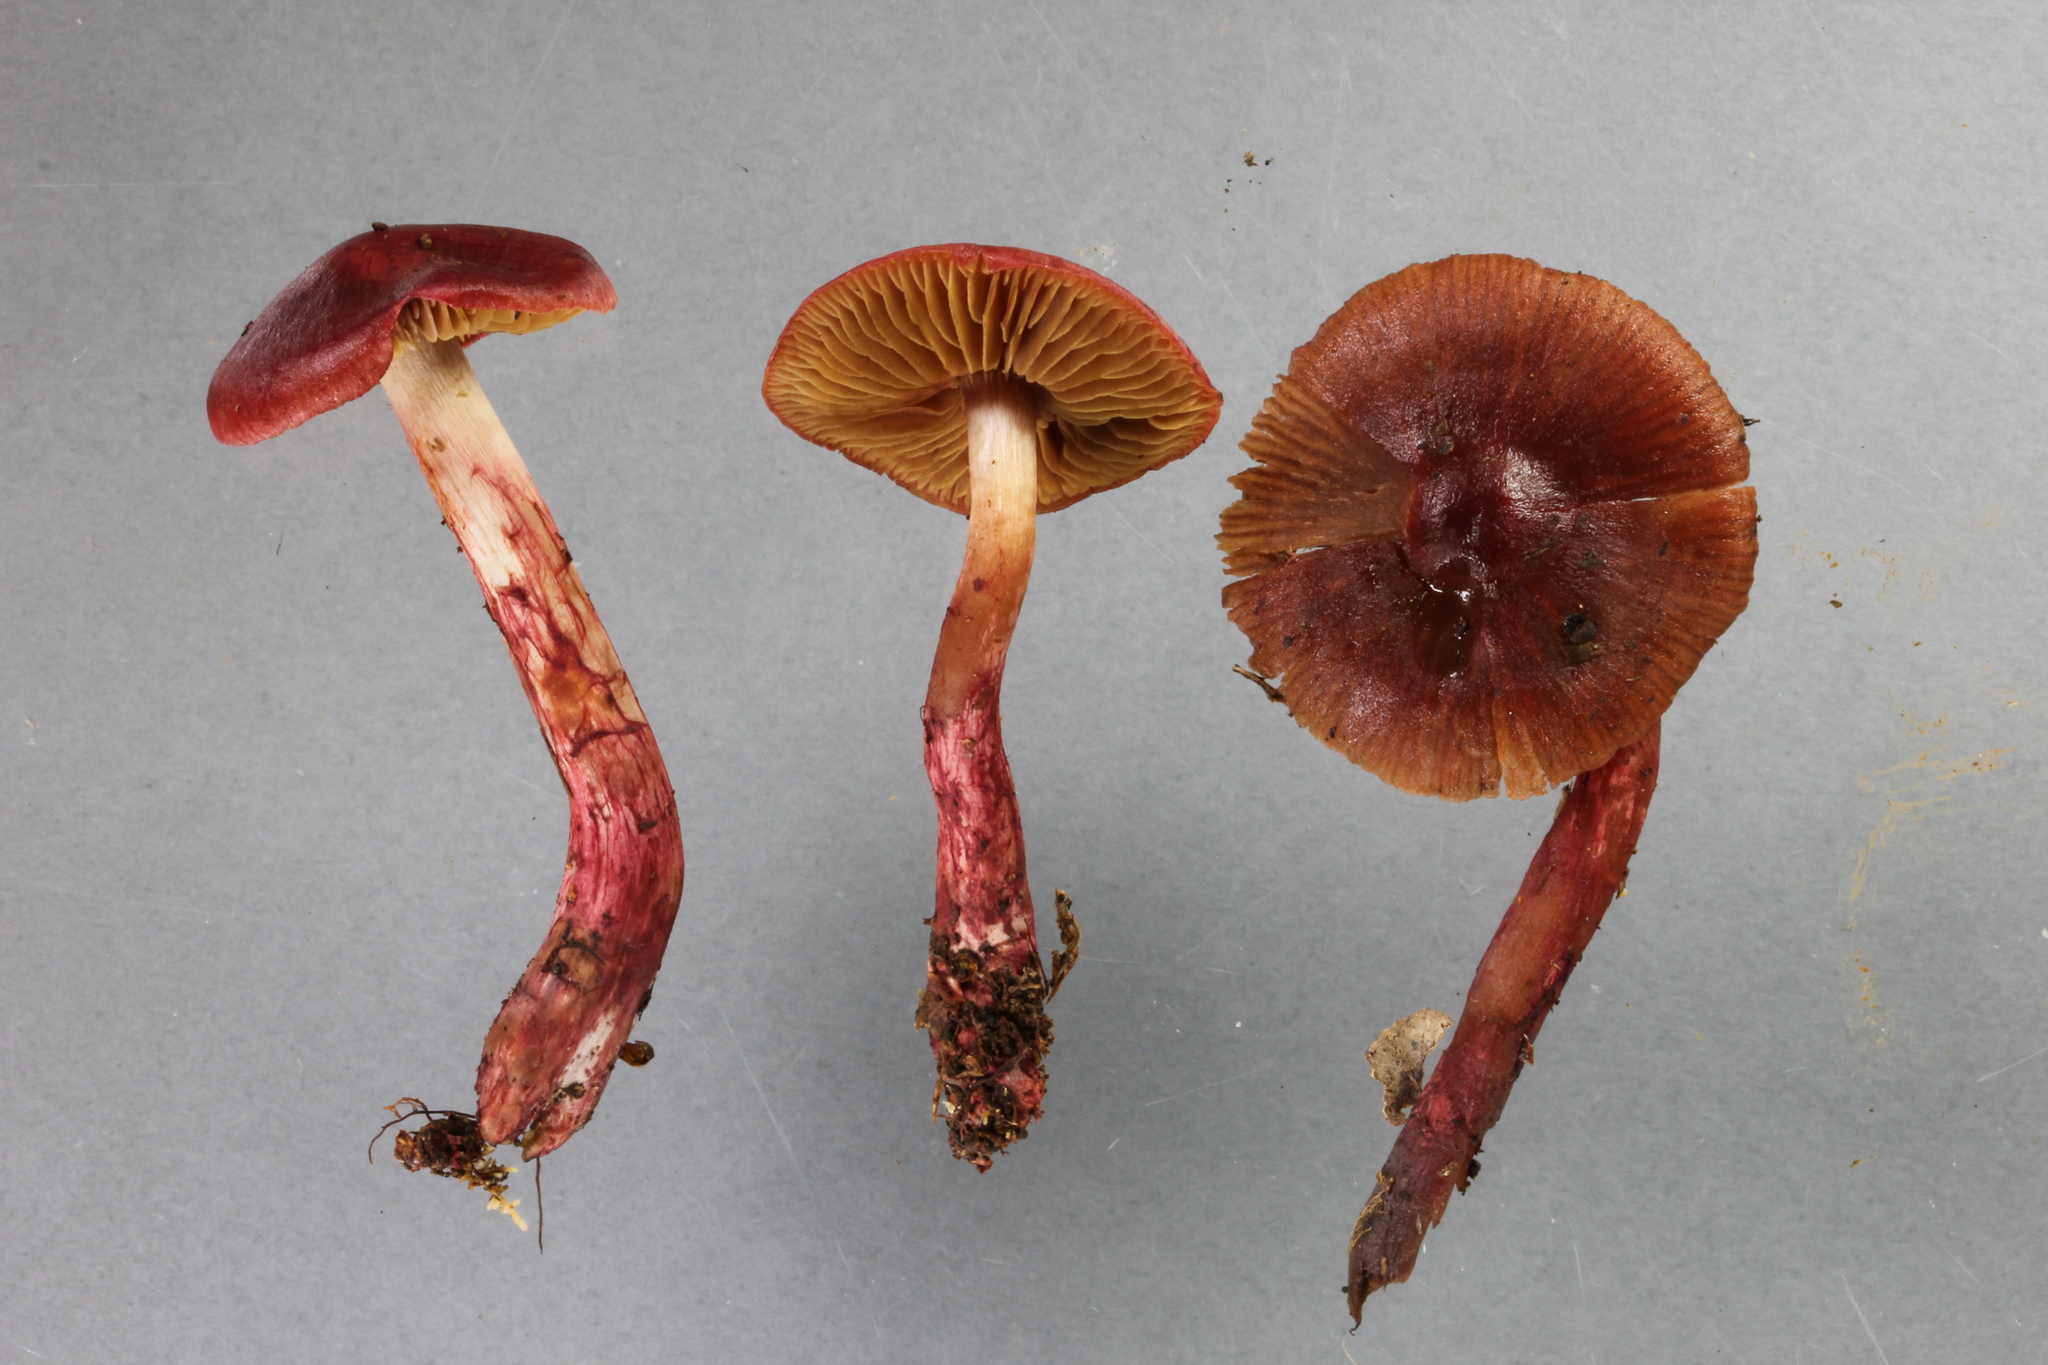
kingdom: Fungi
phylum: Basidiomycota
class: Agaricomycetes
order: Agaricales
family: Cortinariaceae
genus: Cortinarius
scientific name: Cortinarius cardinalis
